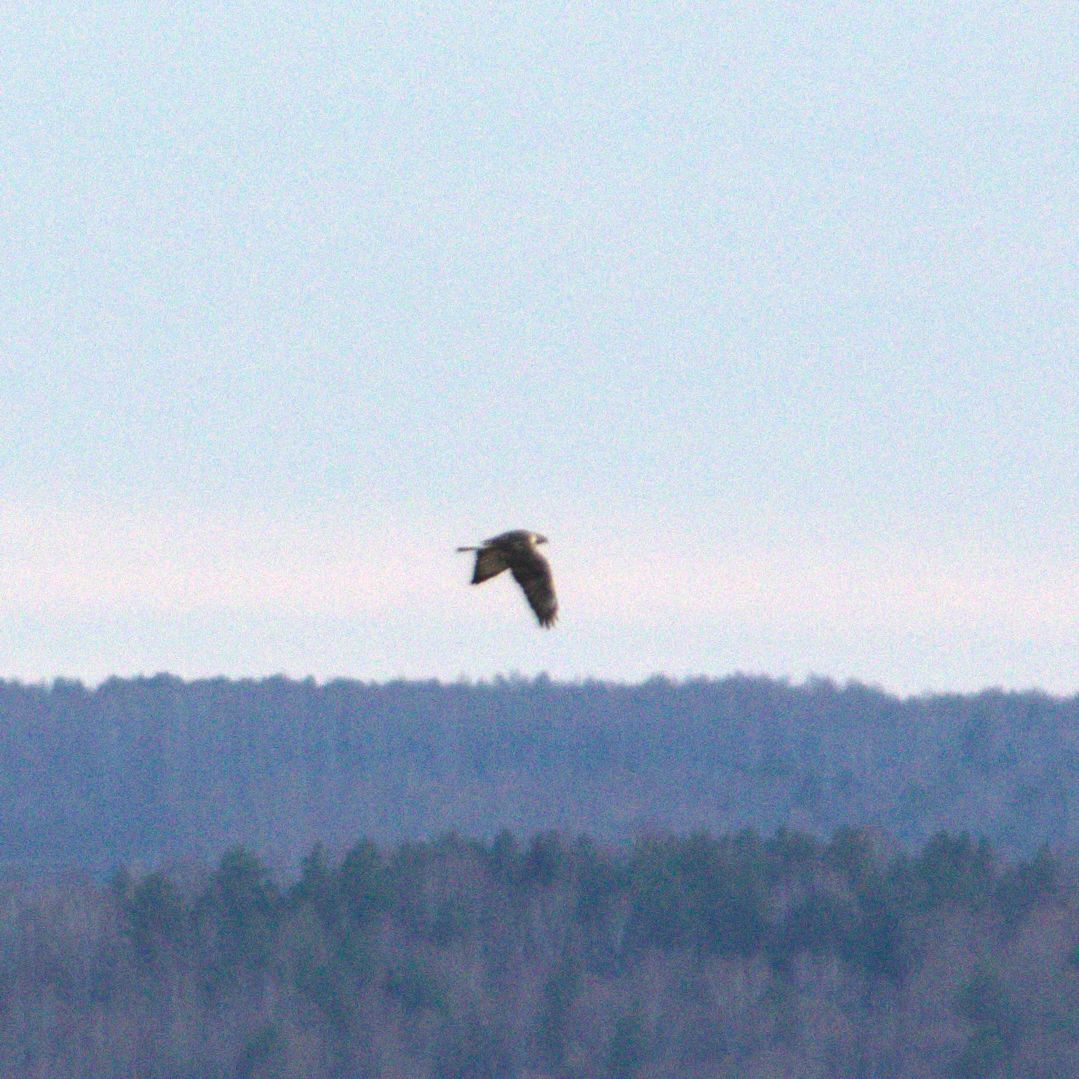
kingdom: Animalia
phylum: Chordata
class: Aves
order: Accipitriformes
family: Accipitridae
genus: Buteo
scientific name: Buteo lagopus
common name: Rough-legged buzzard
